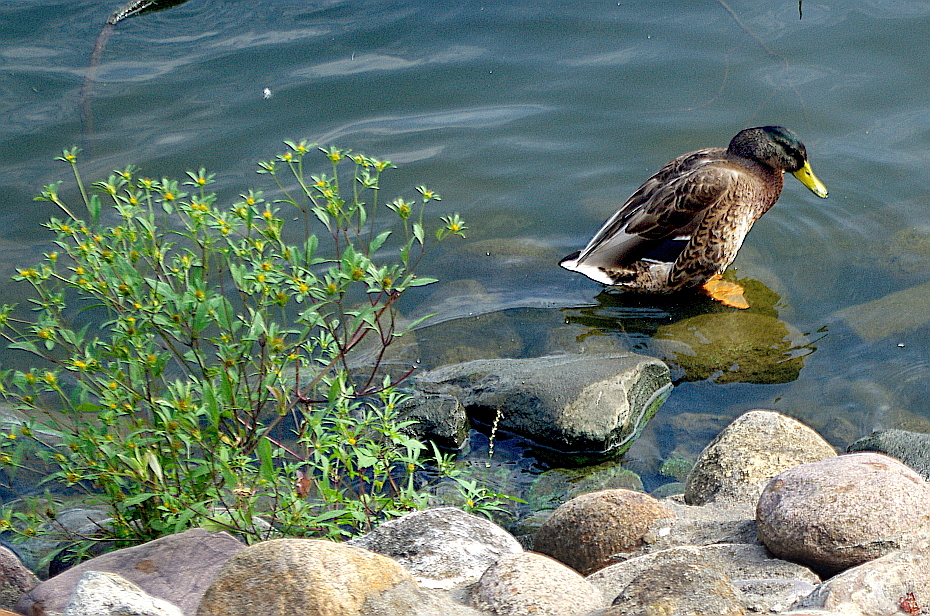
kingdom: Plantae
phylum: Tracheophyta
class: Magnoliopsida
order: Asterales
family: Asteraceae
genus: Bidens
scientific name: Bidens frondosa
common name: Beggarticks
